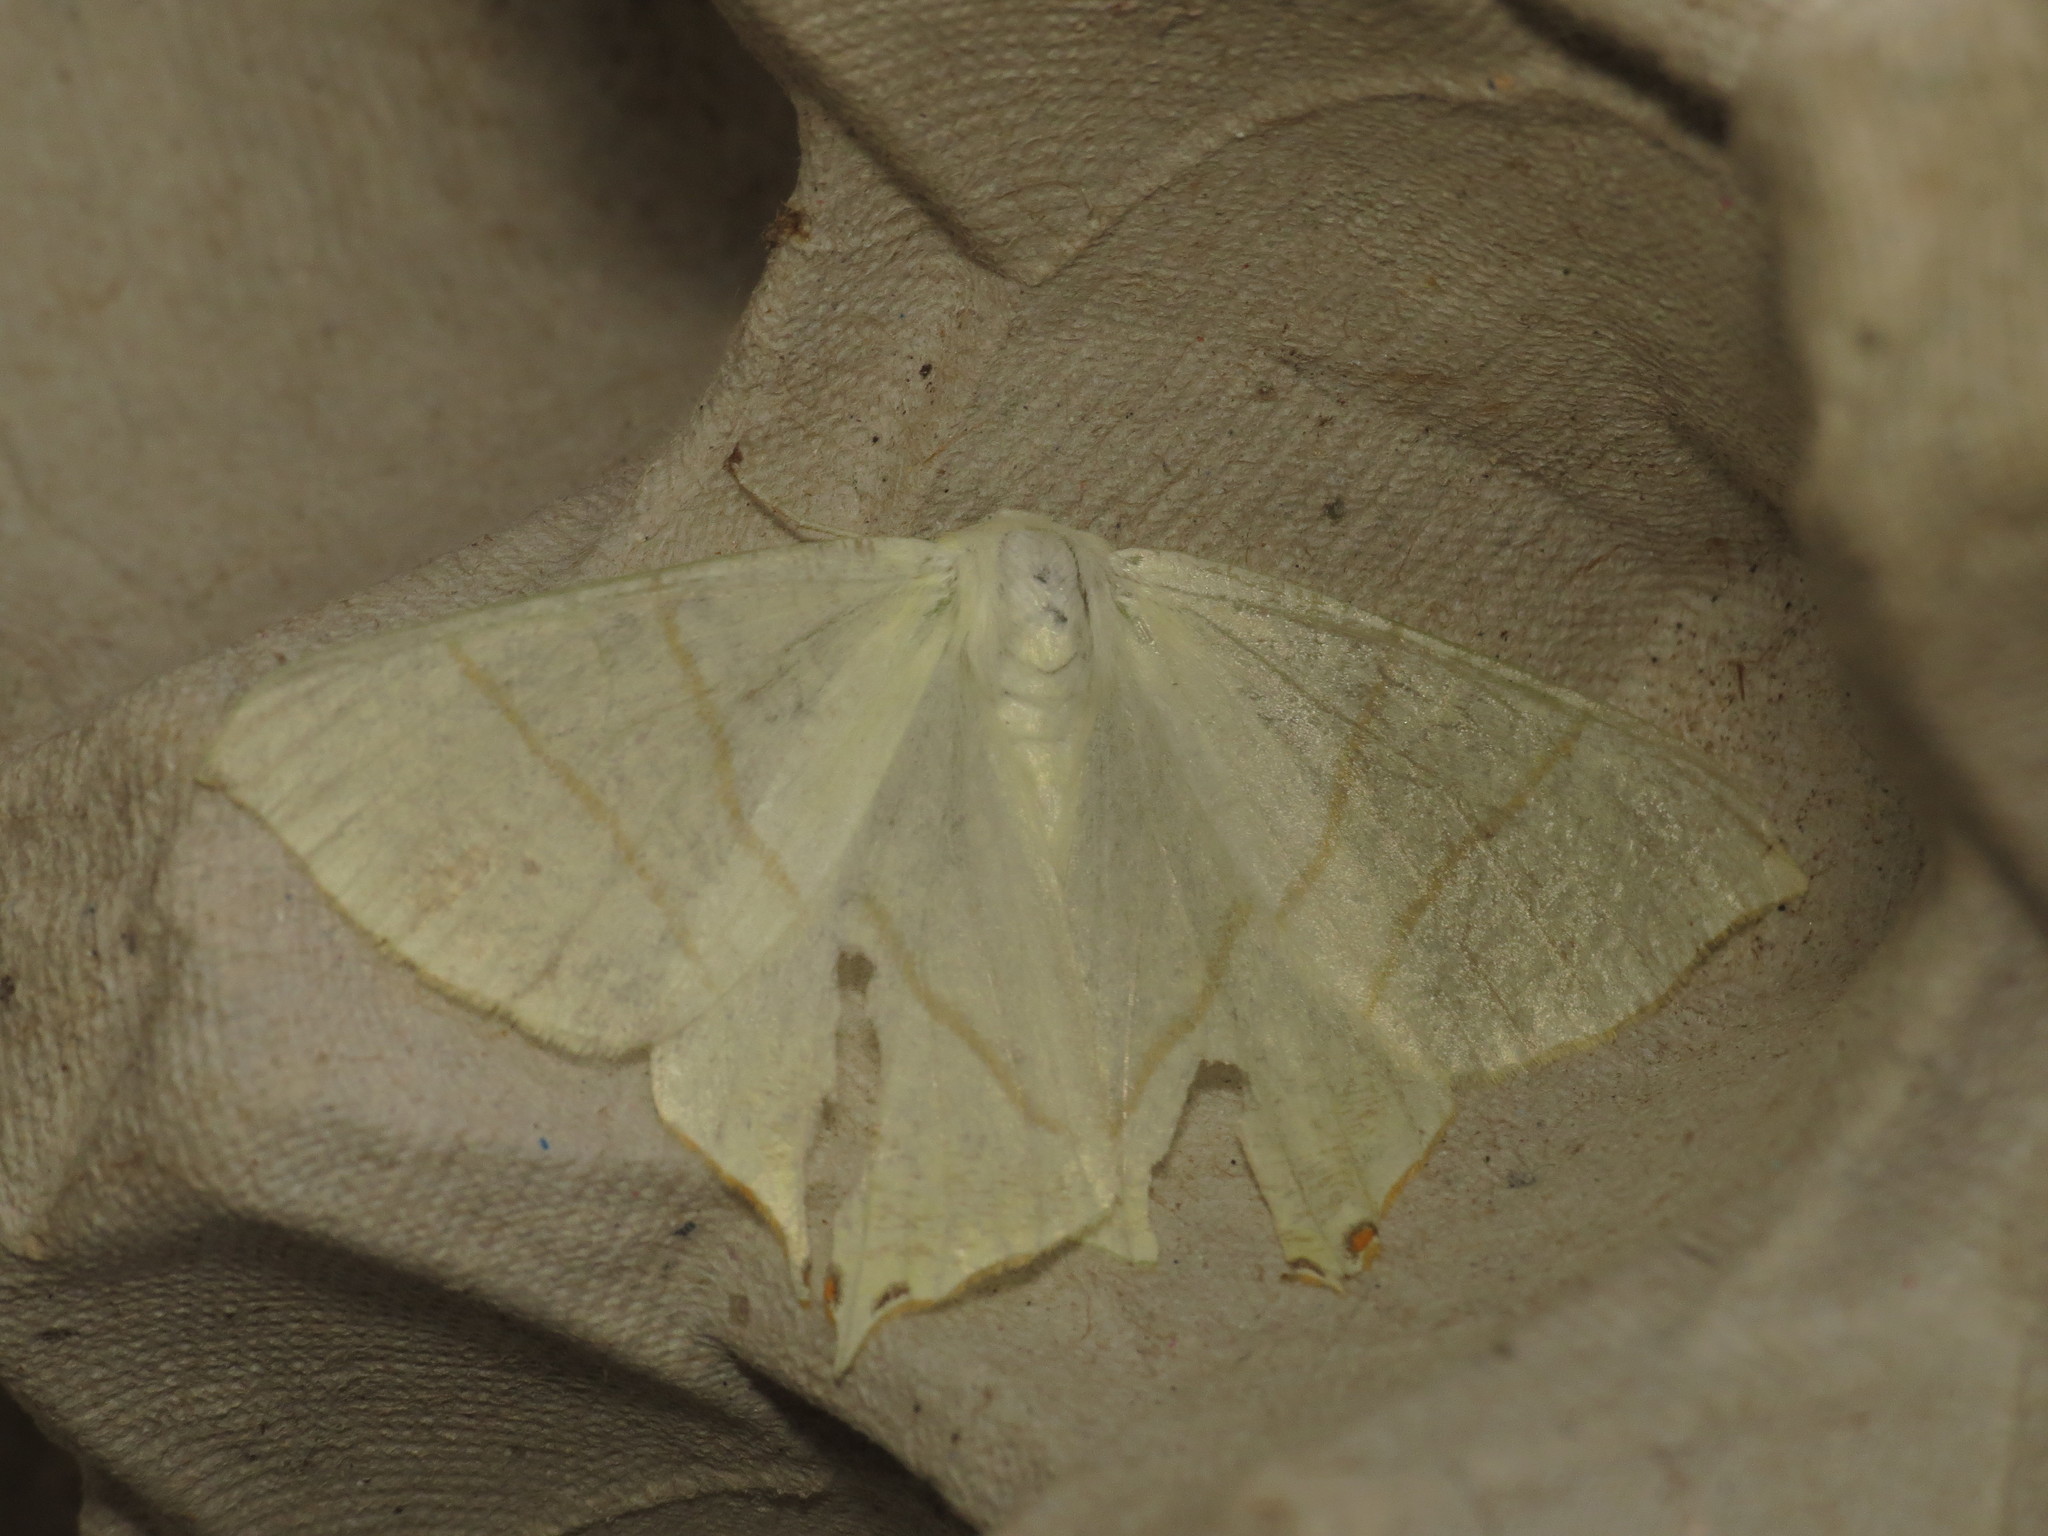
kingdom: Animalia
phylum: Arthropoda
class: Insecta
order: Lepidoptera
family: Geometridae
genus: Ourapteryx
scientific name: Ourapteryx sambucaria
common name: Swallow-tailed moth
